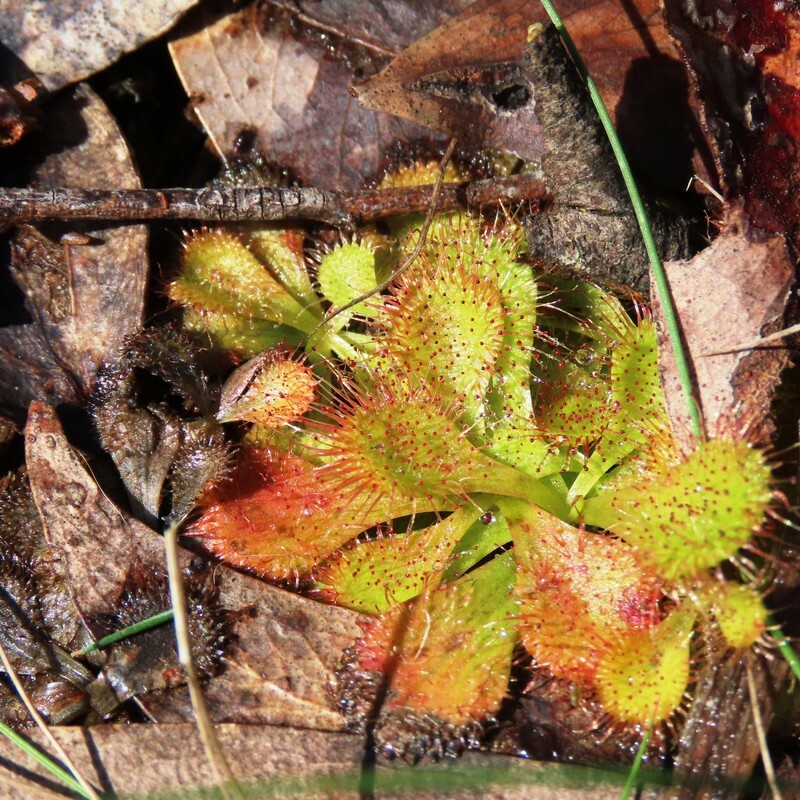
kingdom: Plantae
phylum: Tracheophyta
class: Magnoliopsida
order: Caryophyllales
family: Droseraceae
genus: Drosera
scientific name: Drosera aberrans
